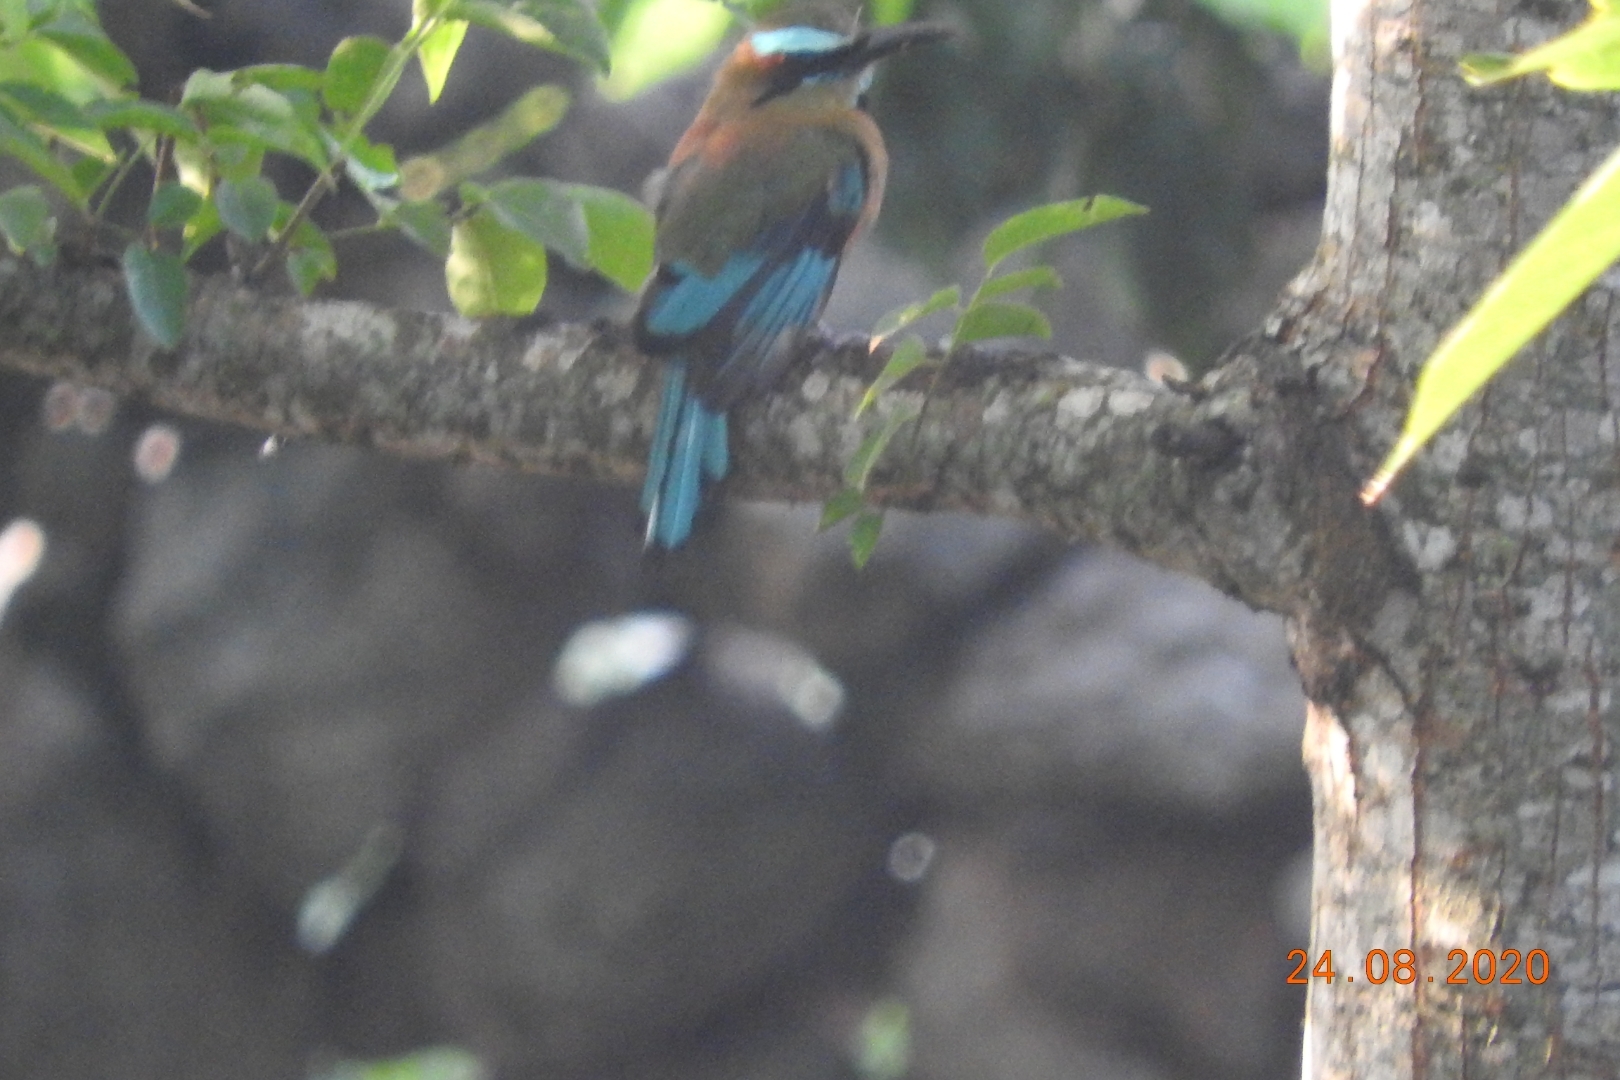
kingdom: Animalia
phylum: Chordata
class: Aves
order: Coraciiformes
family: Momotidae
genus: Eumomota
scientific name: Eumomota superciliosa
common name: Turquoise-browed motmot
